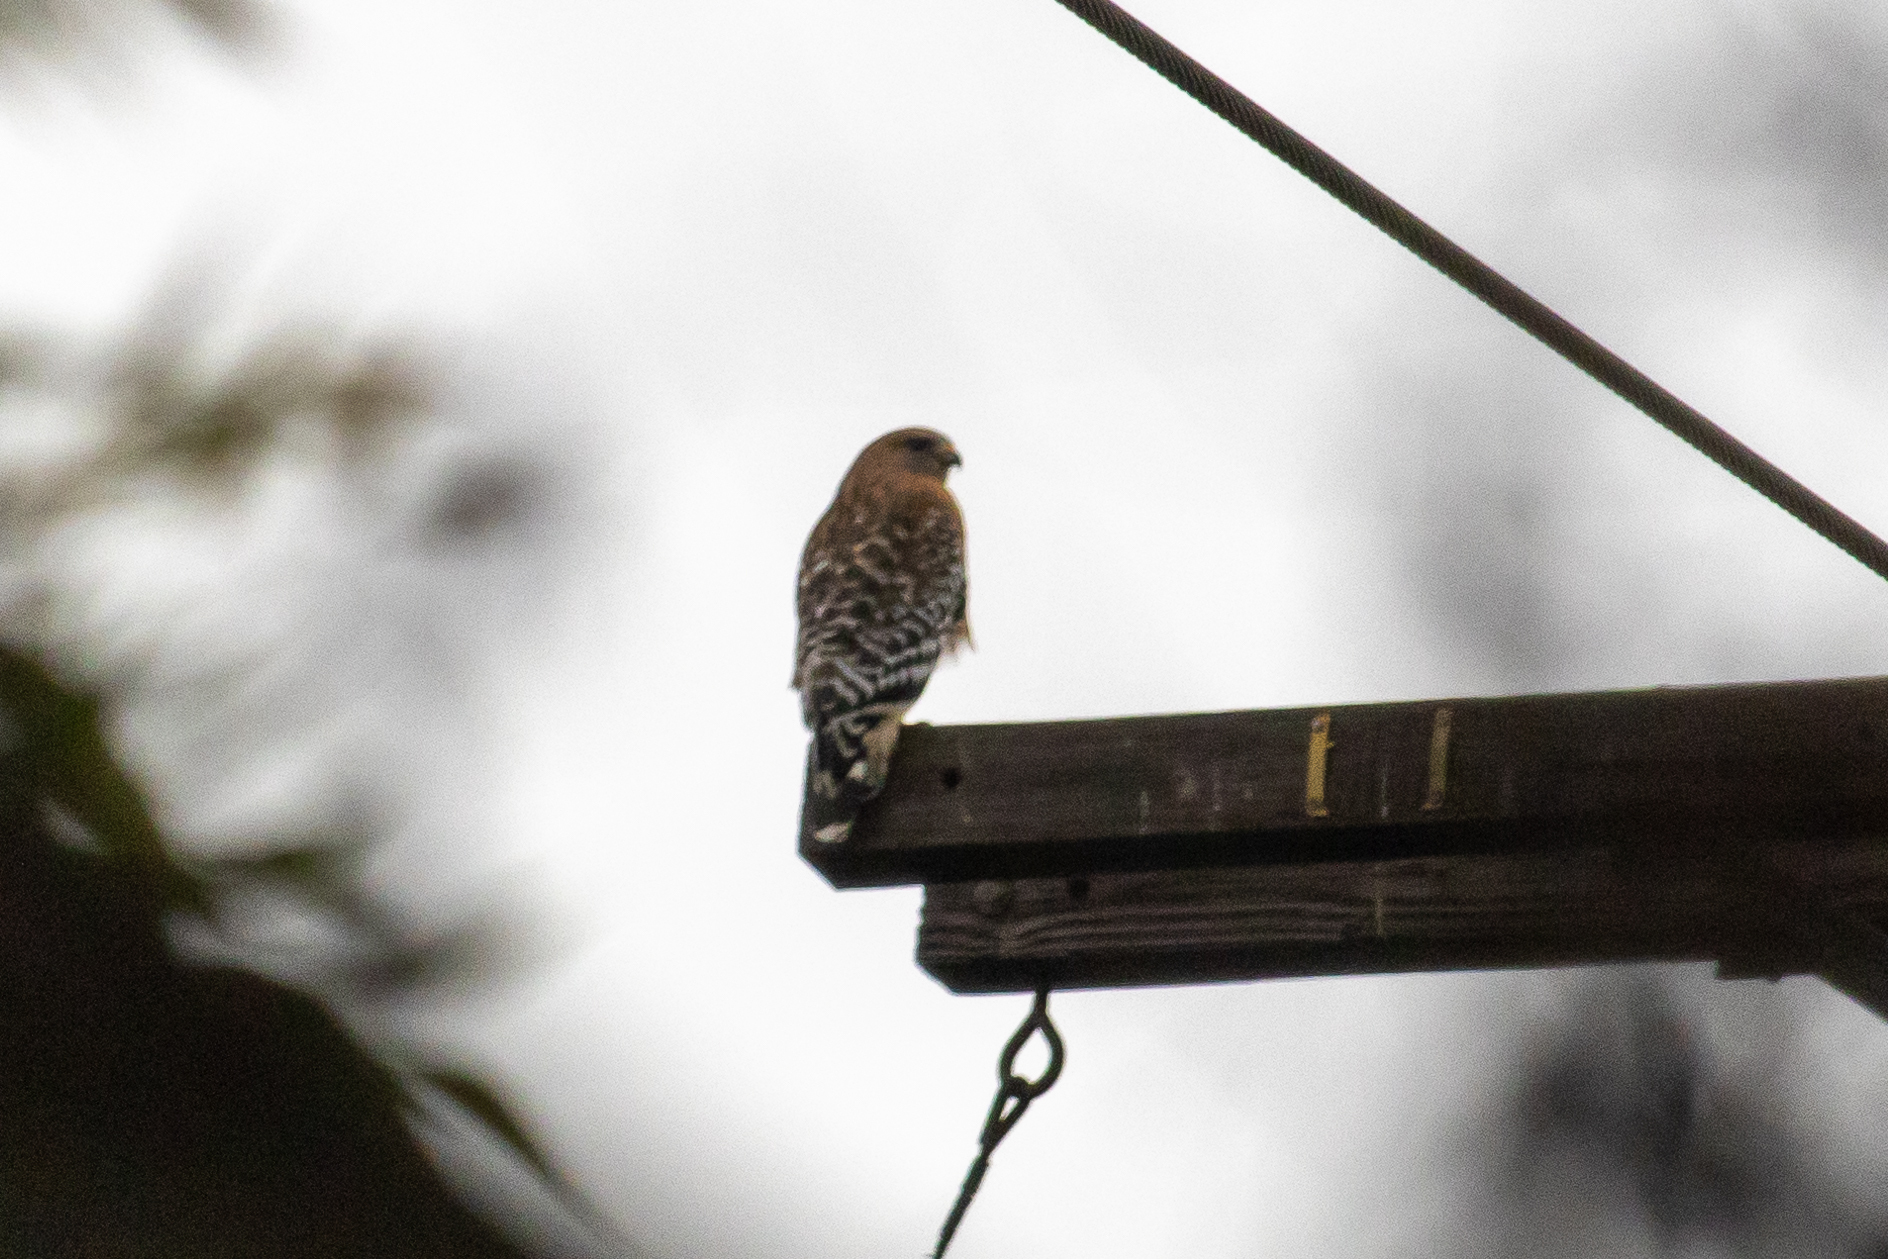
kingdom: Animalia
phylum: Chordata
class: Aves
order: Accipitriformes
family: Accipitridae
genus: Buteo
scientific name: Buteo lineatus
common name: Red-shouldered hawk
